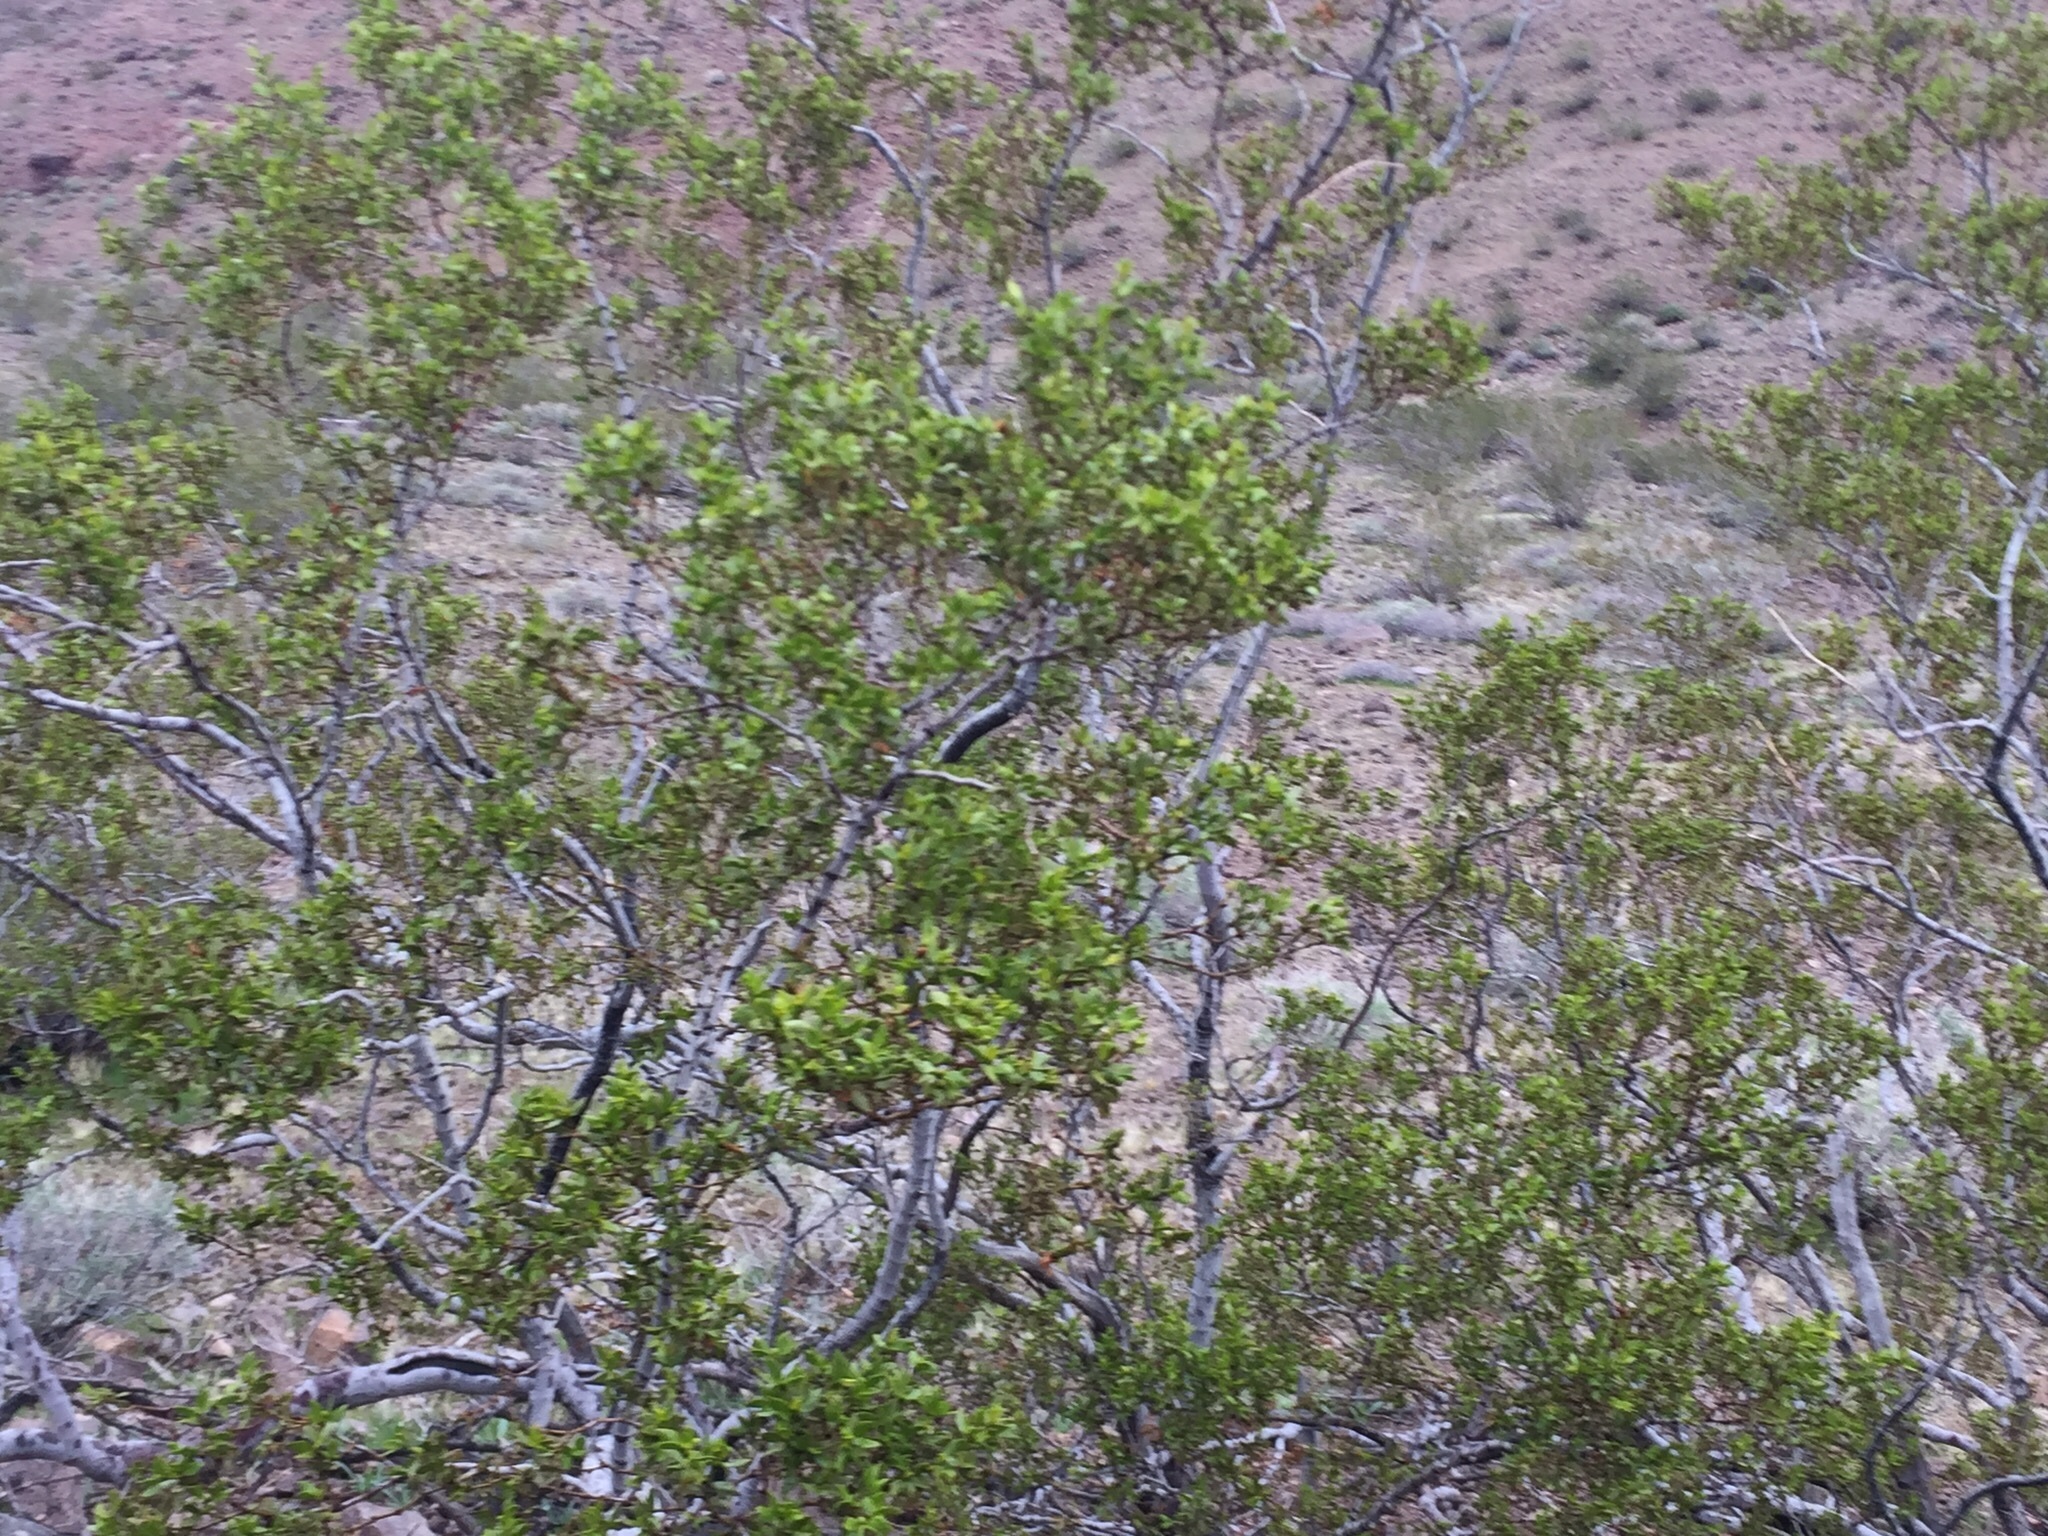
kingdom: Plantae
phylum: Tracheophyta
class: Magnoliopsida
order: Zygophyllales
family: Zygophyllaceae
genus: Larrea
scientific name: Larrea tridentata
